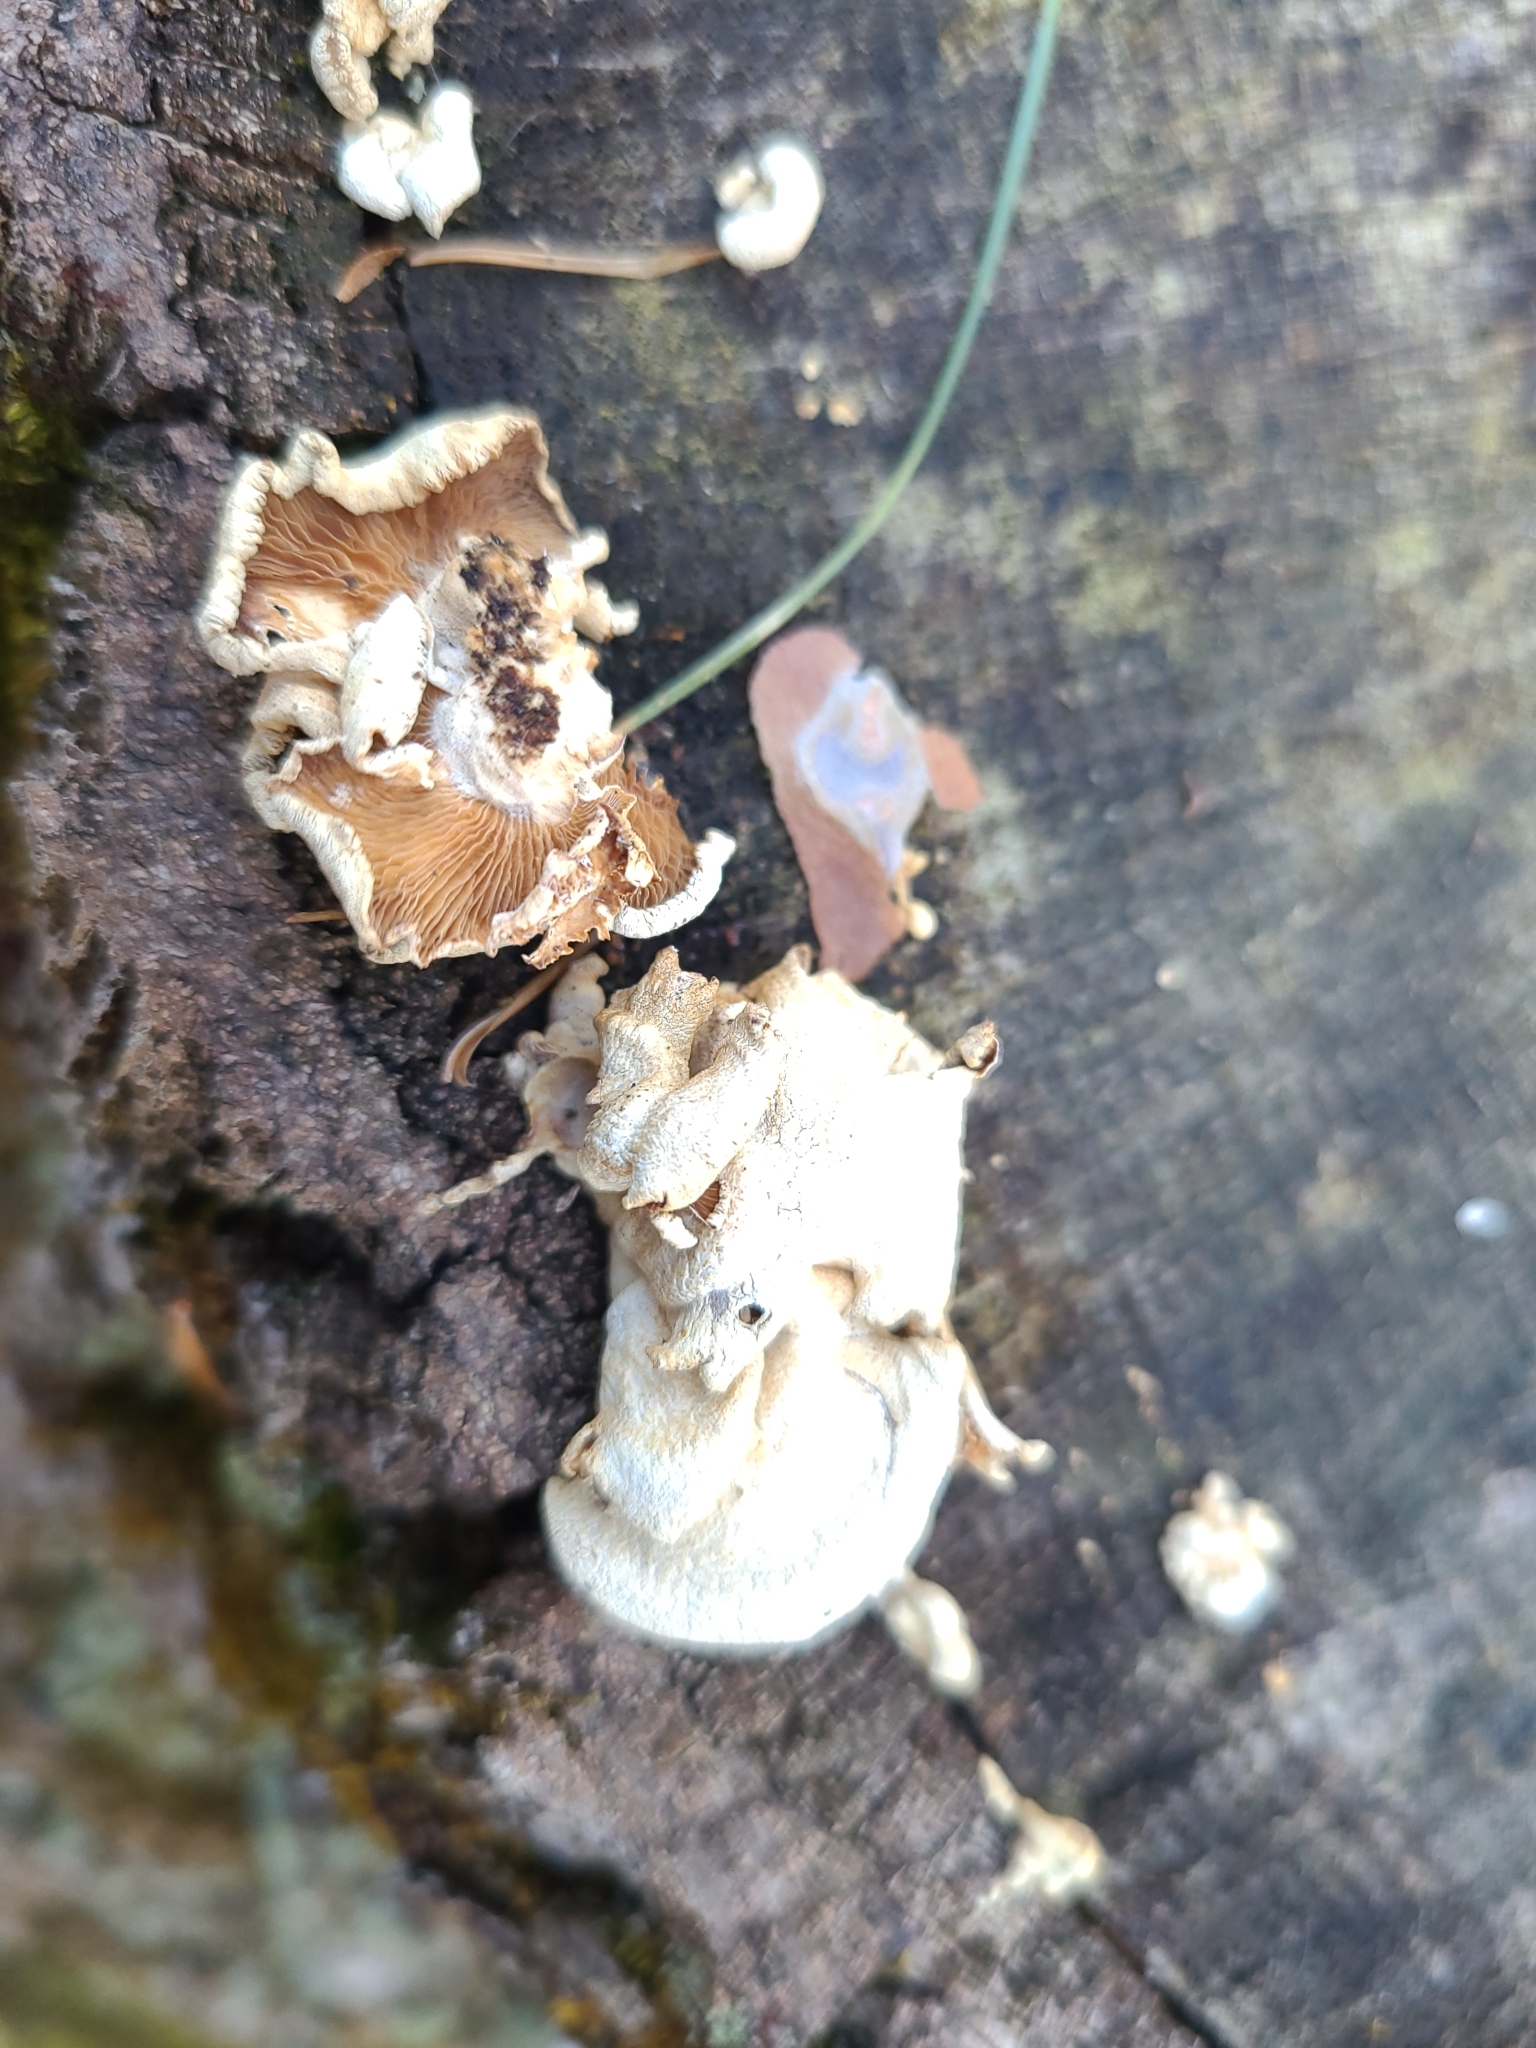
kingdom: Fungi
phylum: Basidiomycota
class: Agaricomycetes
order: Agaricales
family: Mycenaceae
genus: Panellus
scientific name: Panellus stipticus
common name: Bitter oysterling
